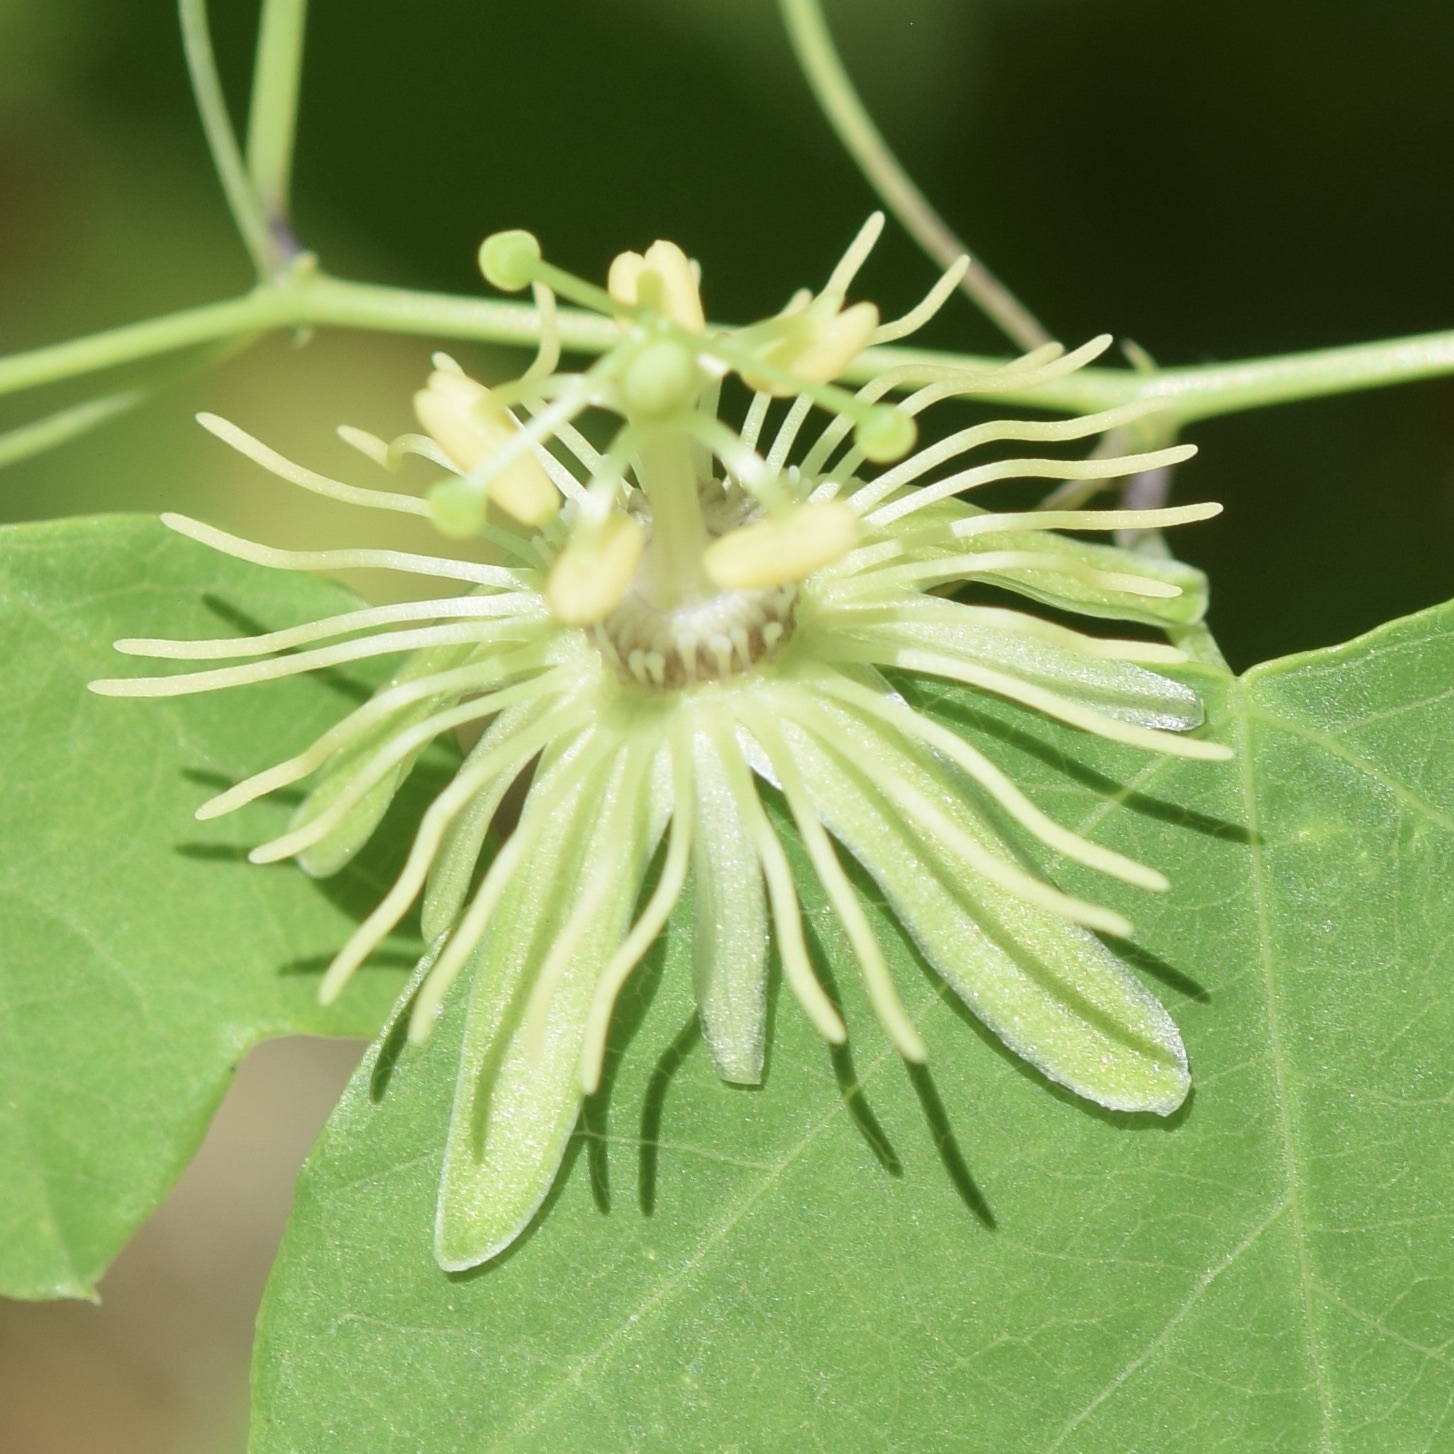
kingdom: Plantae
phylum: Tracheophyta
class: Magnoliopsida
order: Malpighiales
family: Passifloraceae
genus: Passiflora
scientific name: Passiflora lutea
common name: Yellow passionflower
